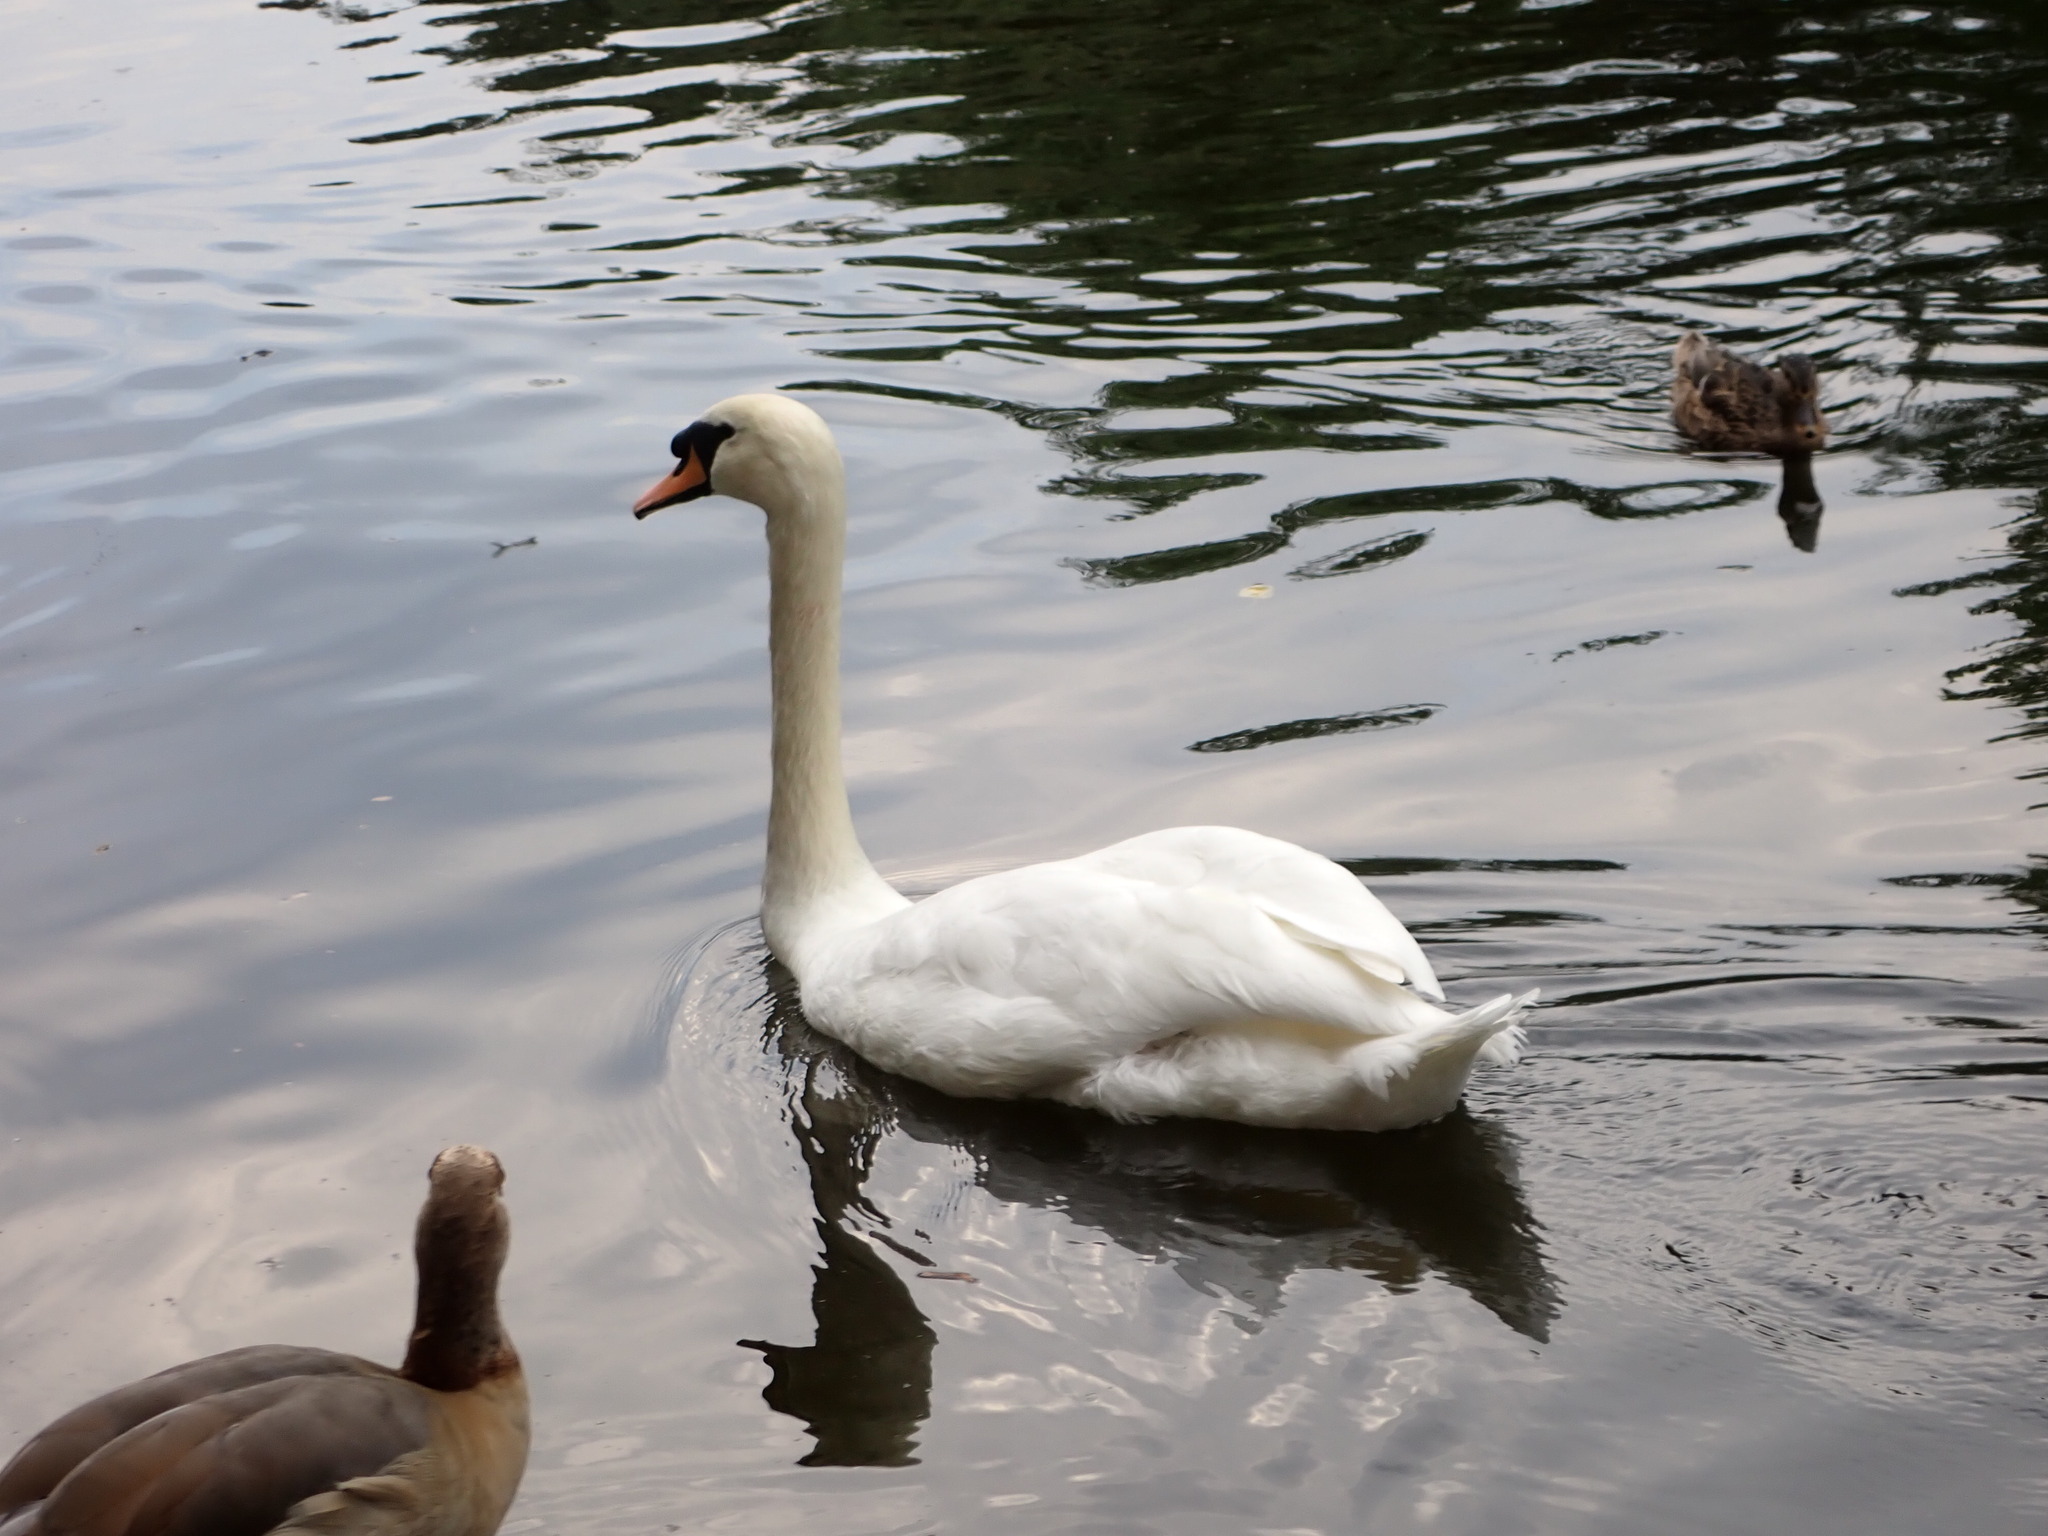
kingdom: Animalia
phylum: Chordata
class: Aves
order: Anseriformes
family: Anatidae
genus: Cygnus
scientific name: Cygnus olor
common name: Mute swan
